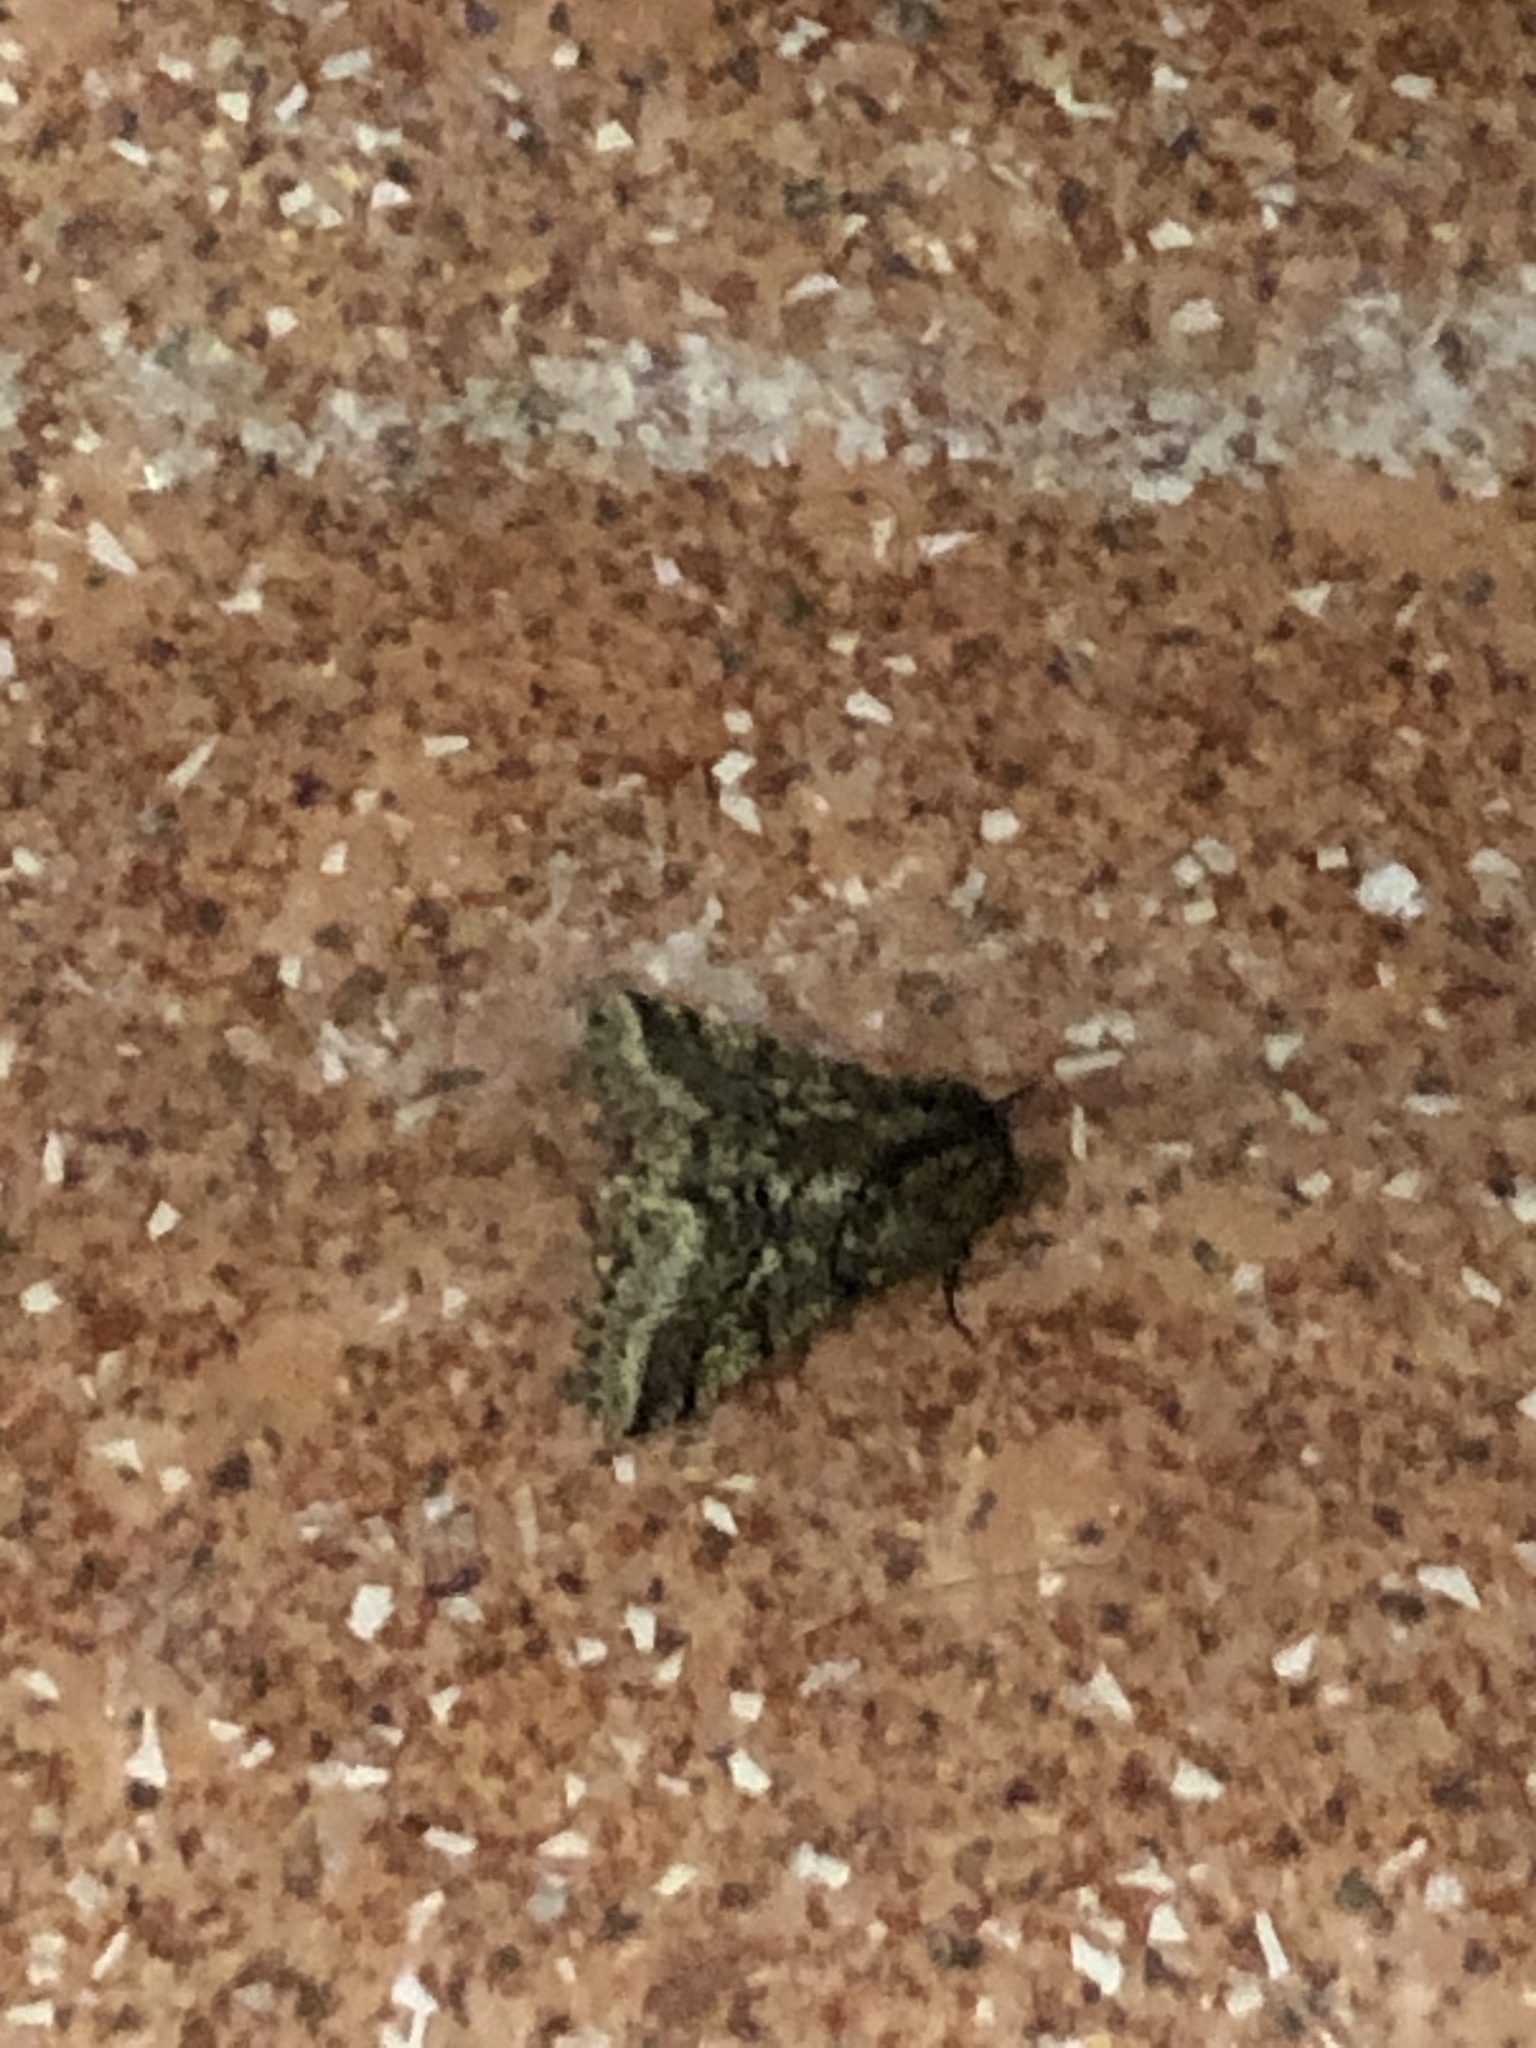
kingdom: Animalia
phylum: Arthropoda
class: Insecta
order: Lepidoptera
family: Geometridae
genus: Lycia
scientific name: Lycia hirtaria
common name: Brindled beauty
